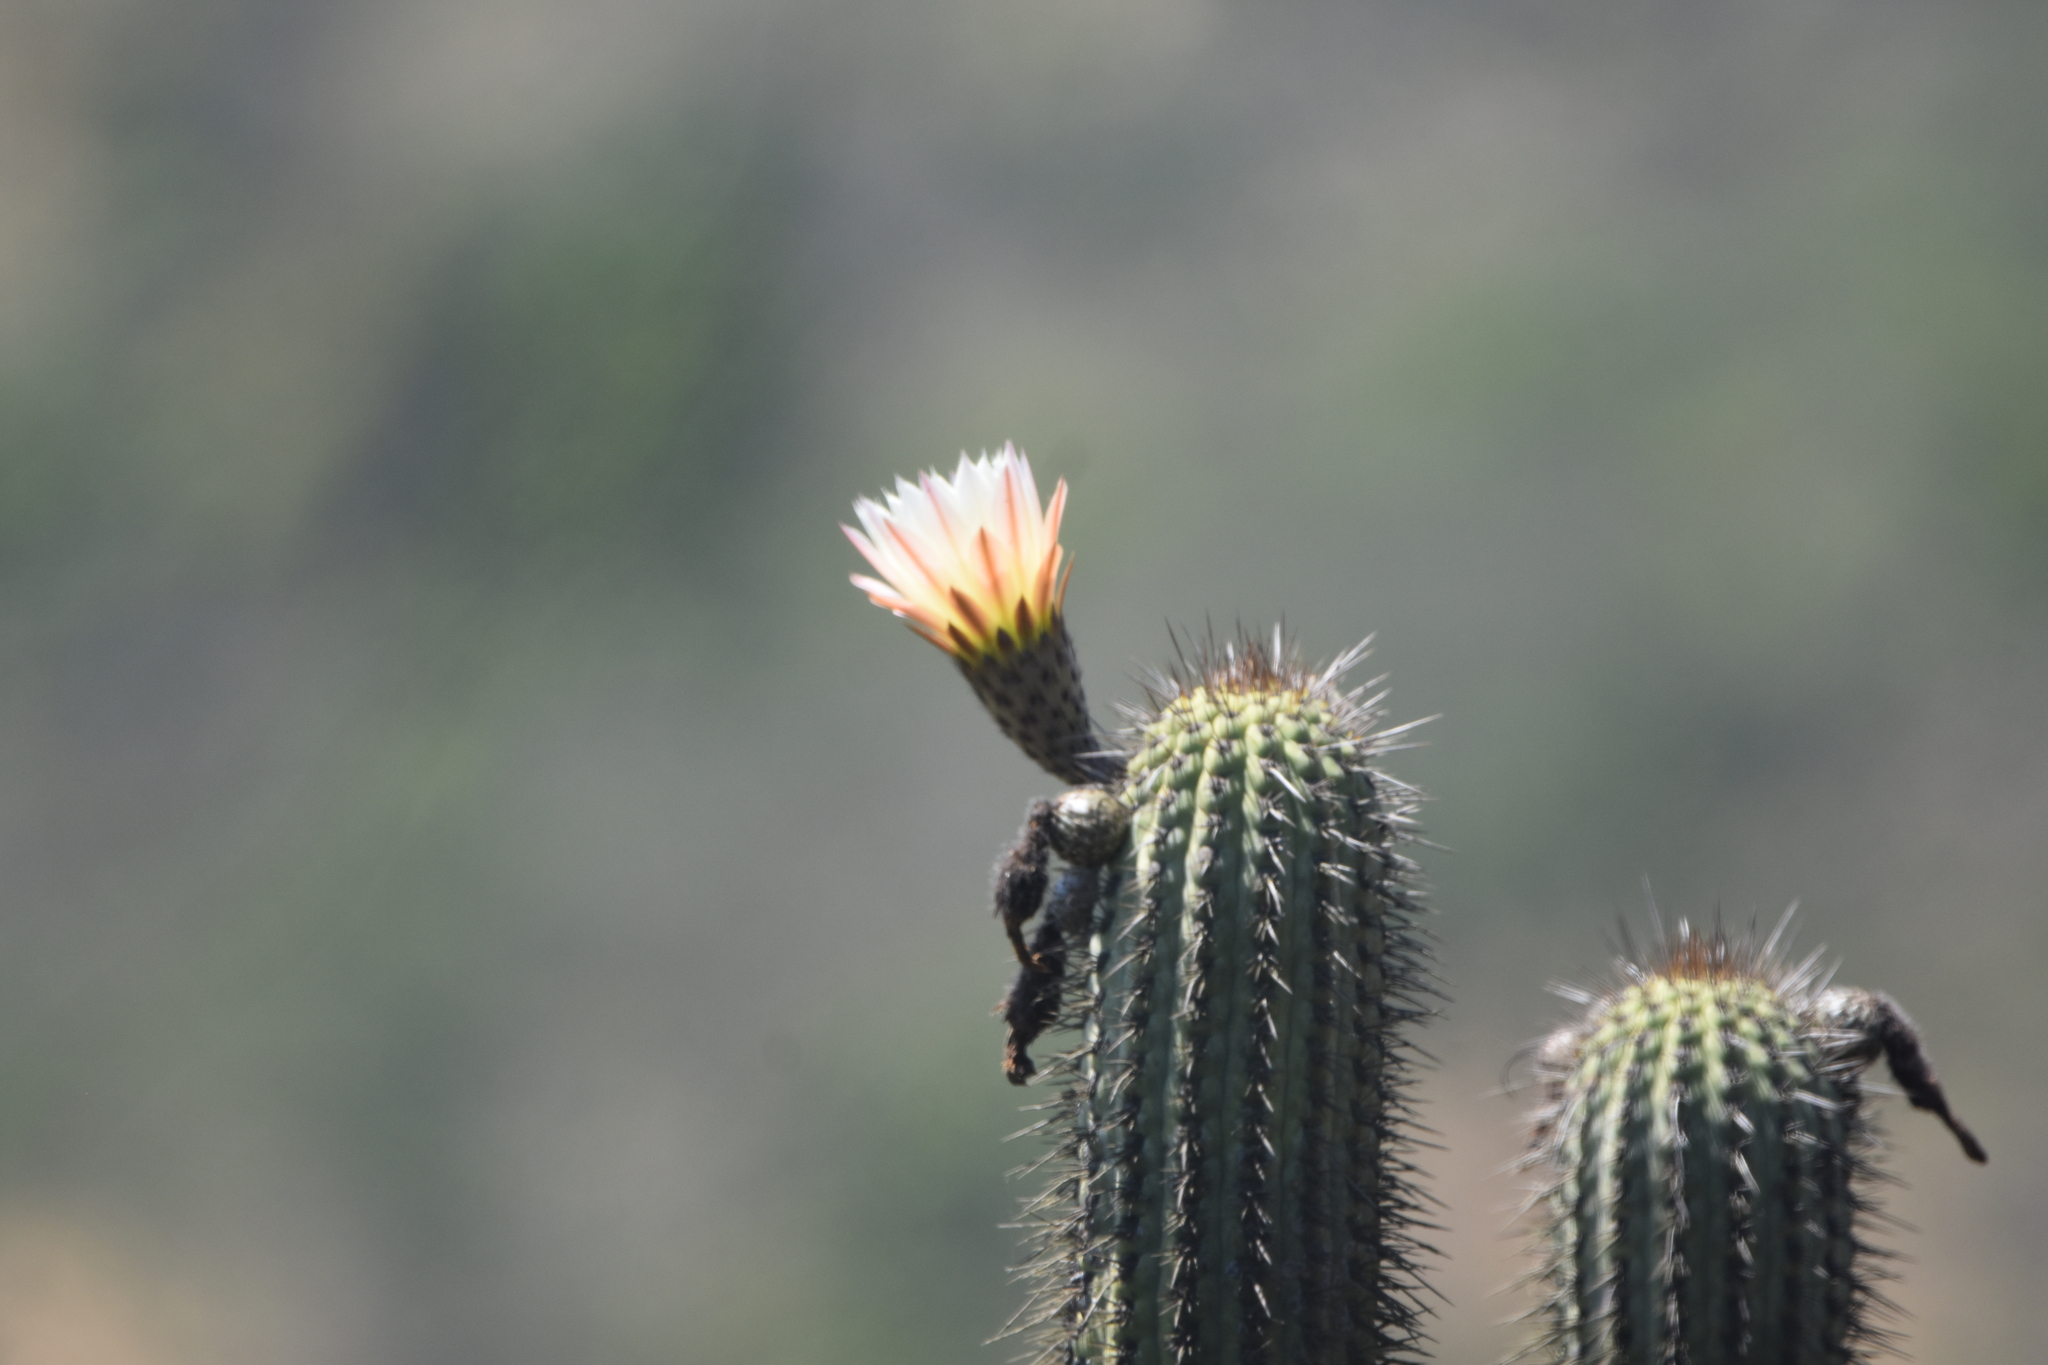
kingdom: Plantae
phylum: Tracheophyta
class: Magnoliopsida
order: Caryophyllales
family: Cactaceae
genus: Leucostele
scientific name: Leucostele chiloensis
